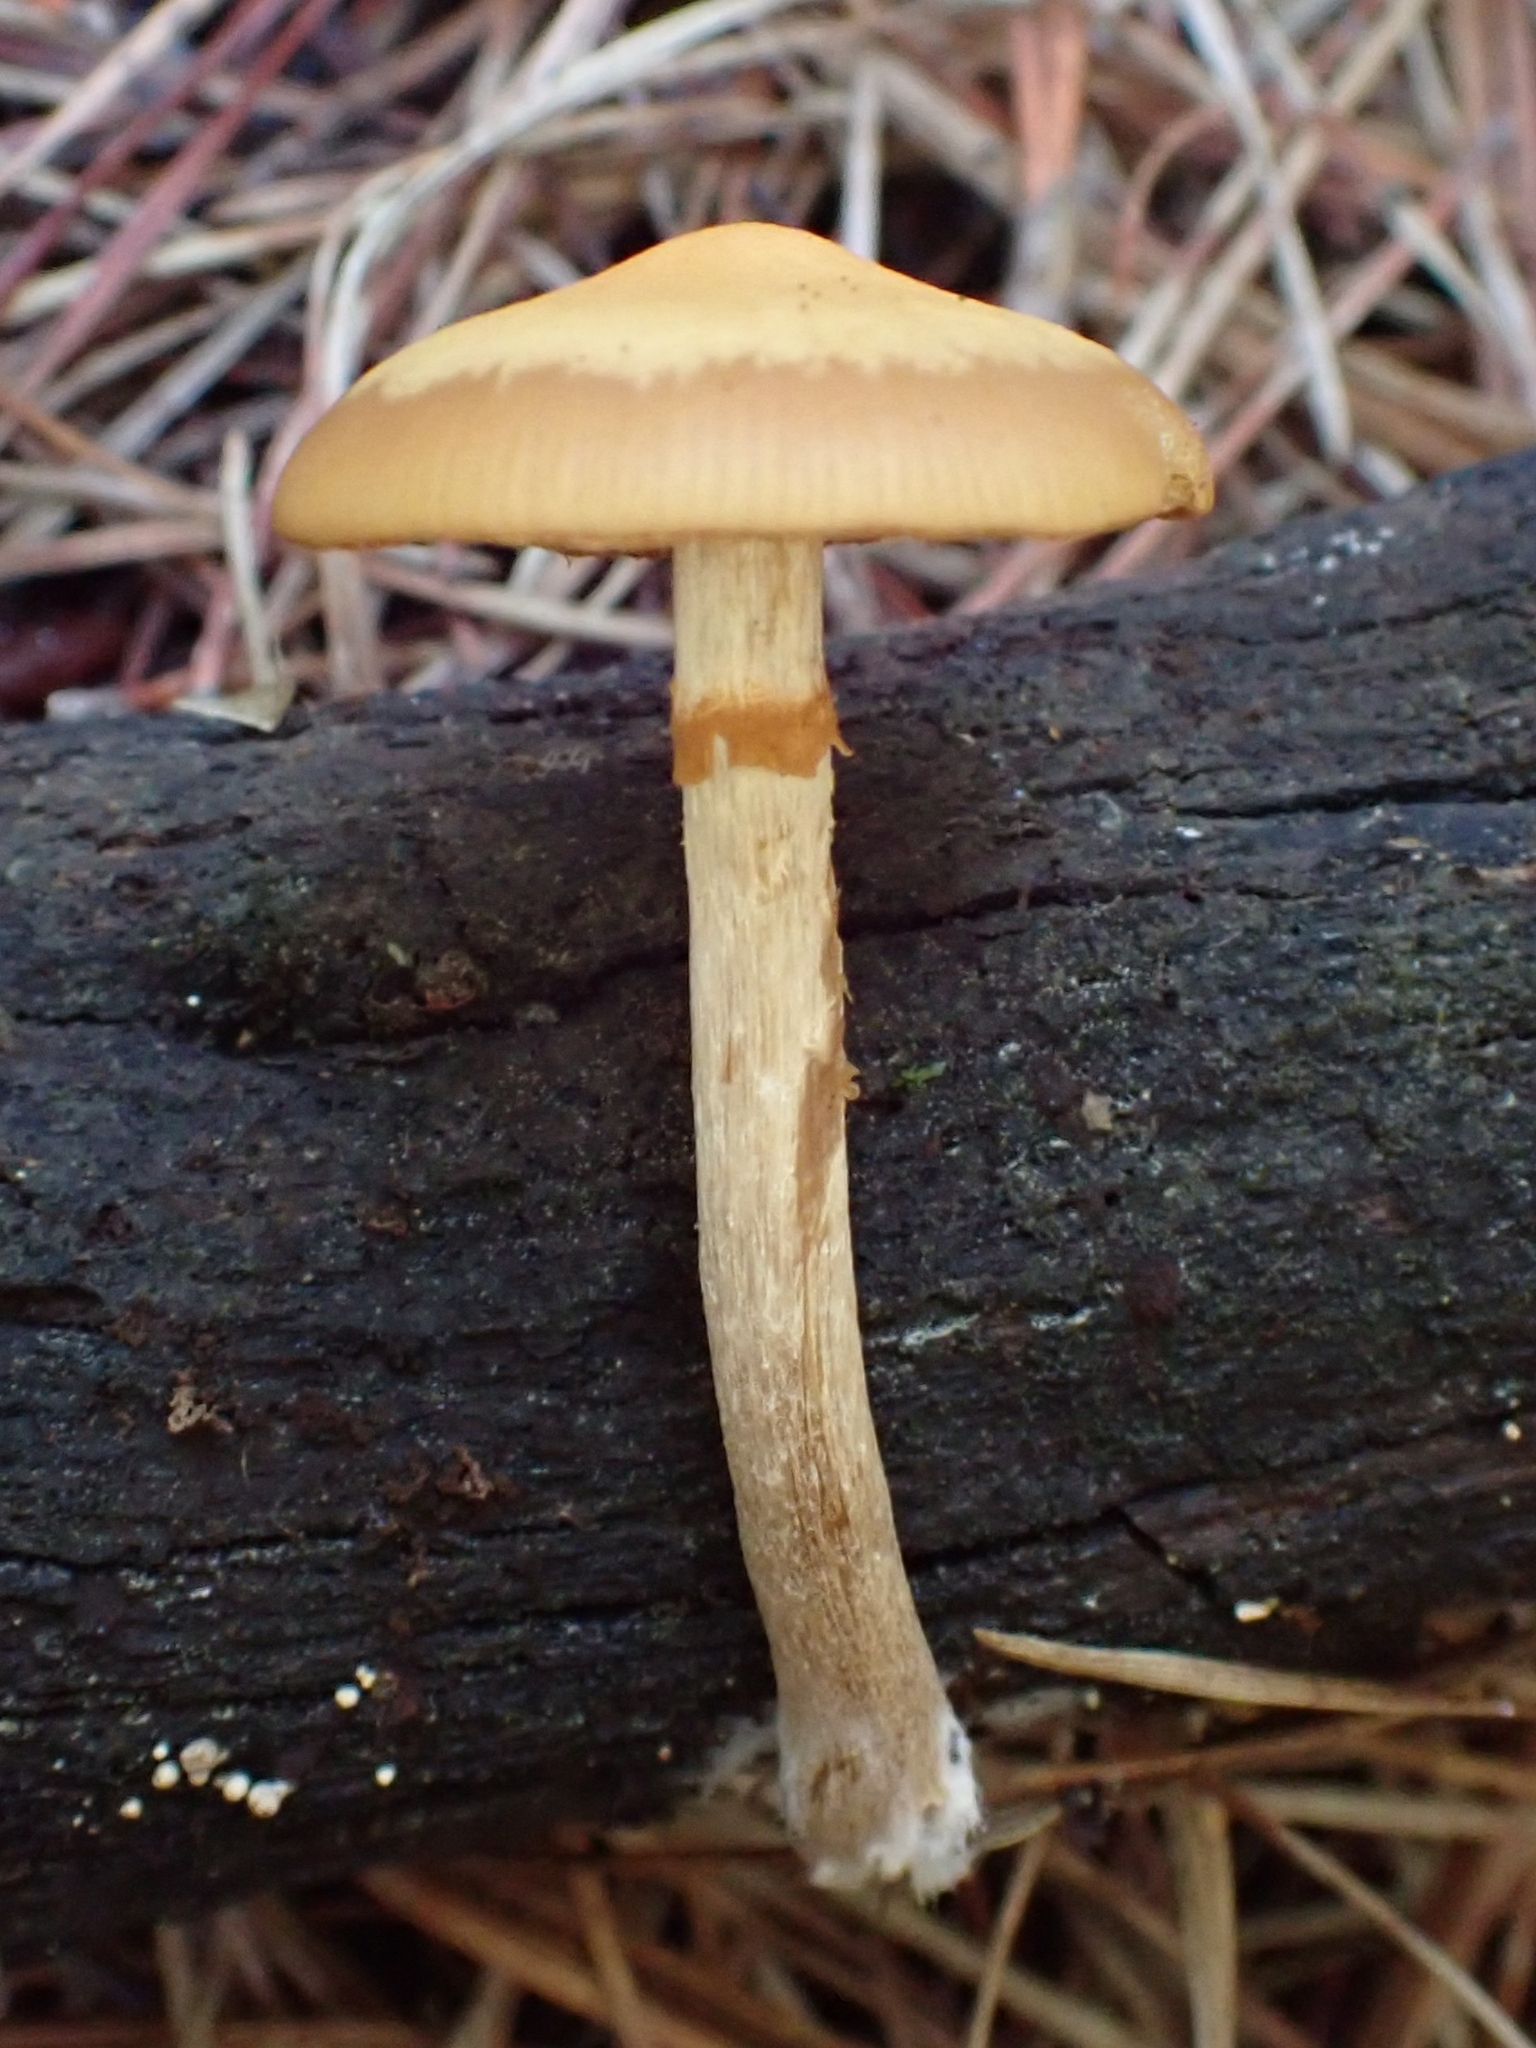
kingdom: Fungi
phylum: Basidiomycota
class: Agaricomycetes
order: Agaricales
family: Hymenogastraceae
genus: Galerina
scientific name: Galerina patagonica
